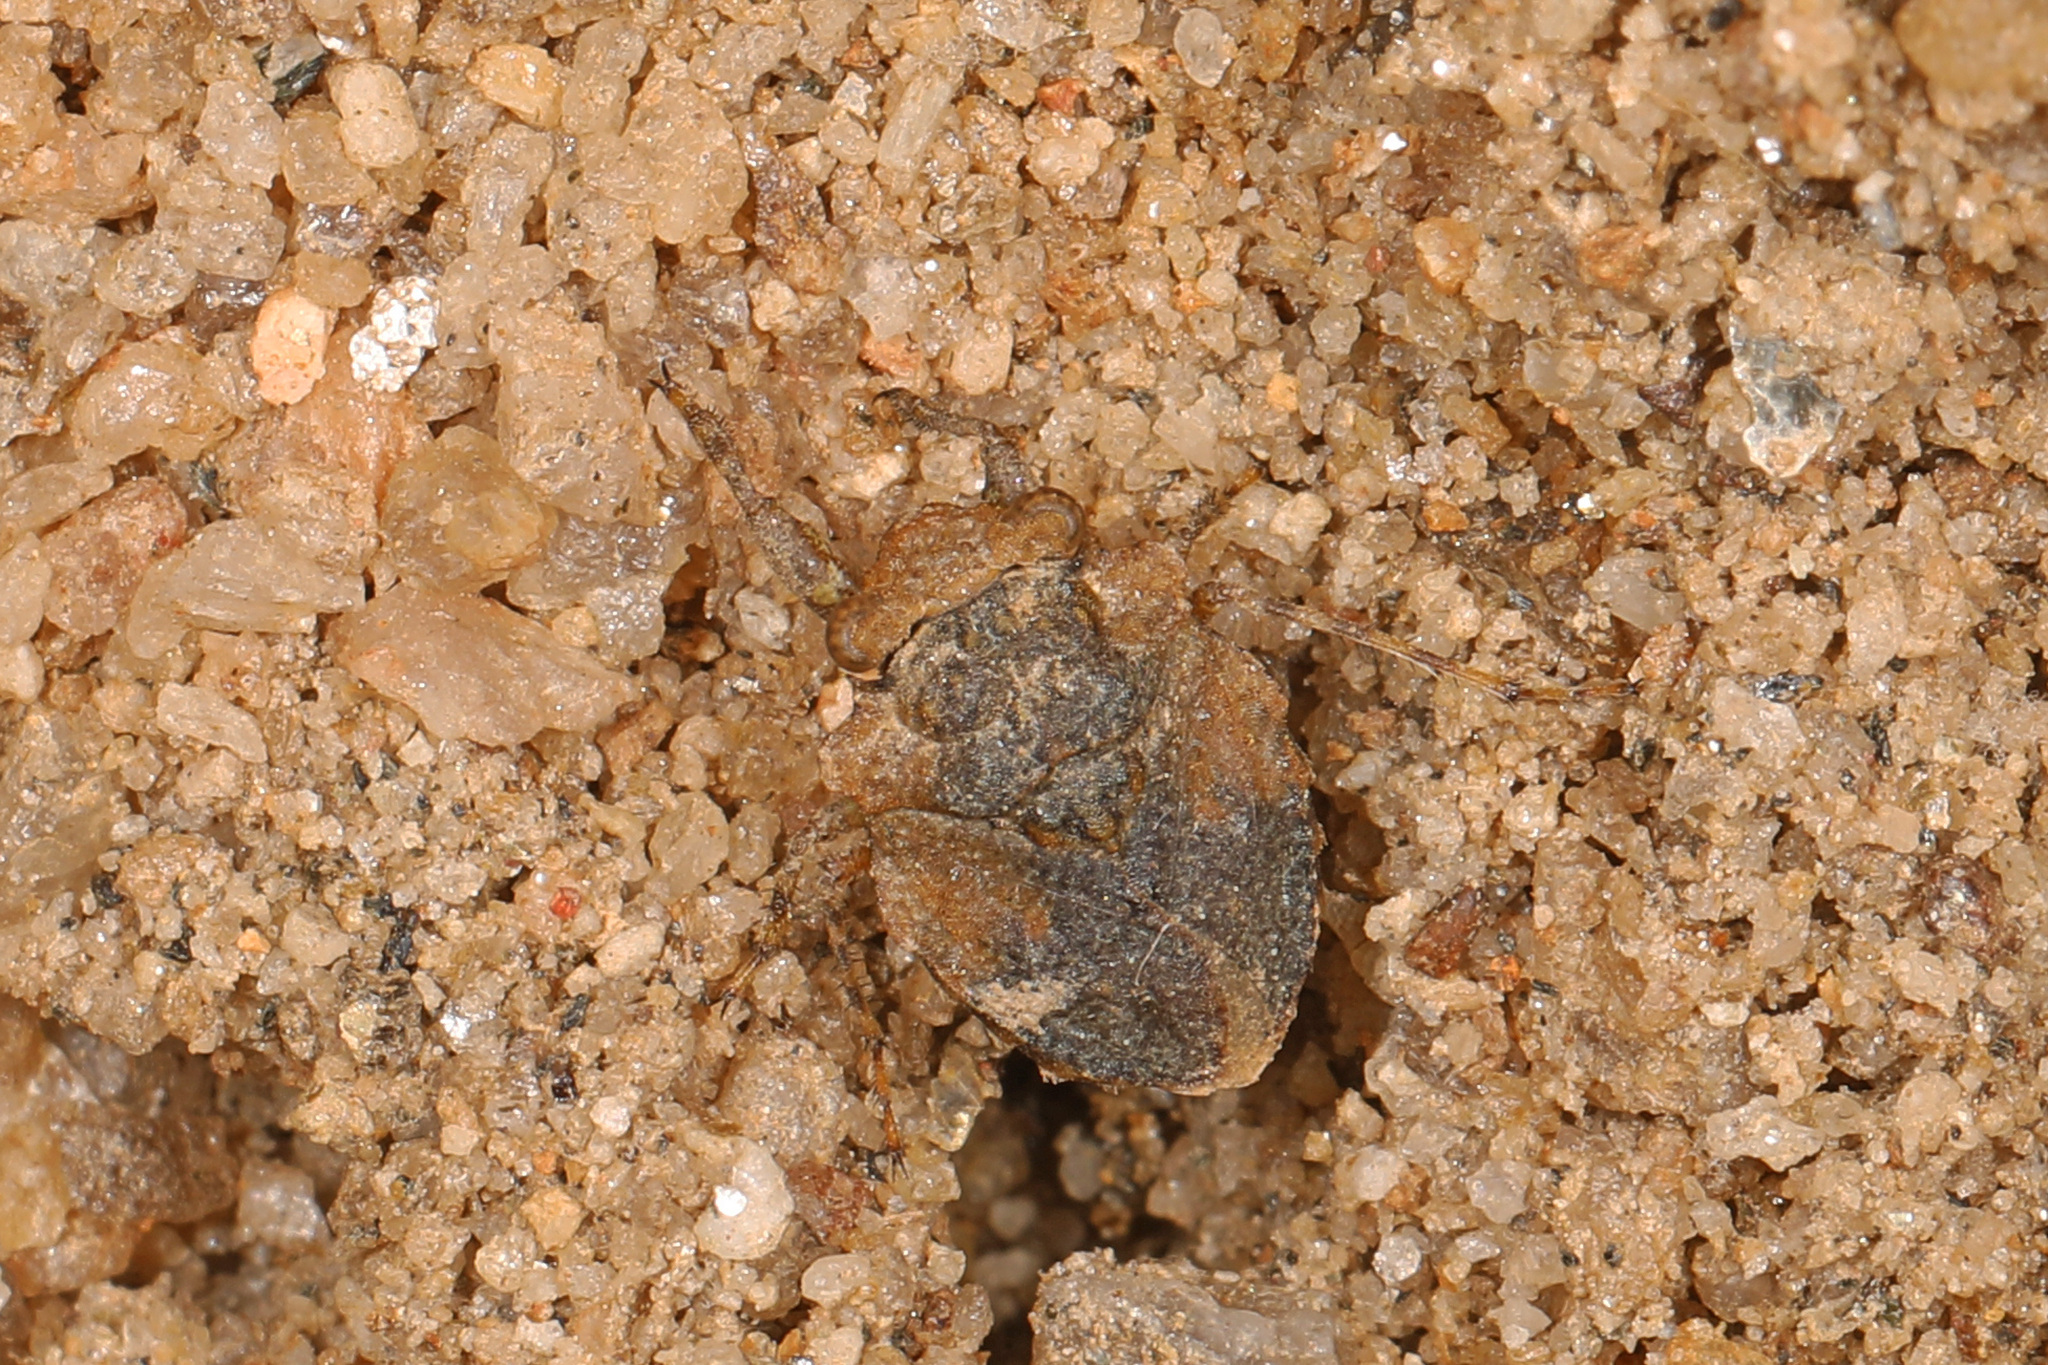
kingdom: Animalia
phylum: Arthropoda
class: Insecta
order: Hemiptera
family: Gelastocoridae
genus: Gelastocoris
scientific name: Gelastocoris oculatus
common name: Toad bug
